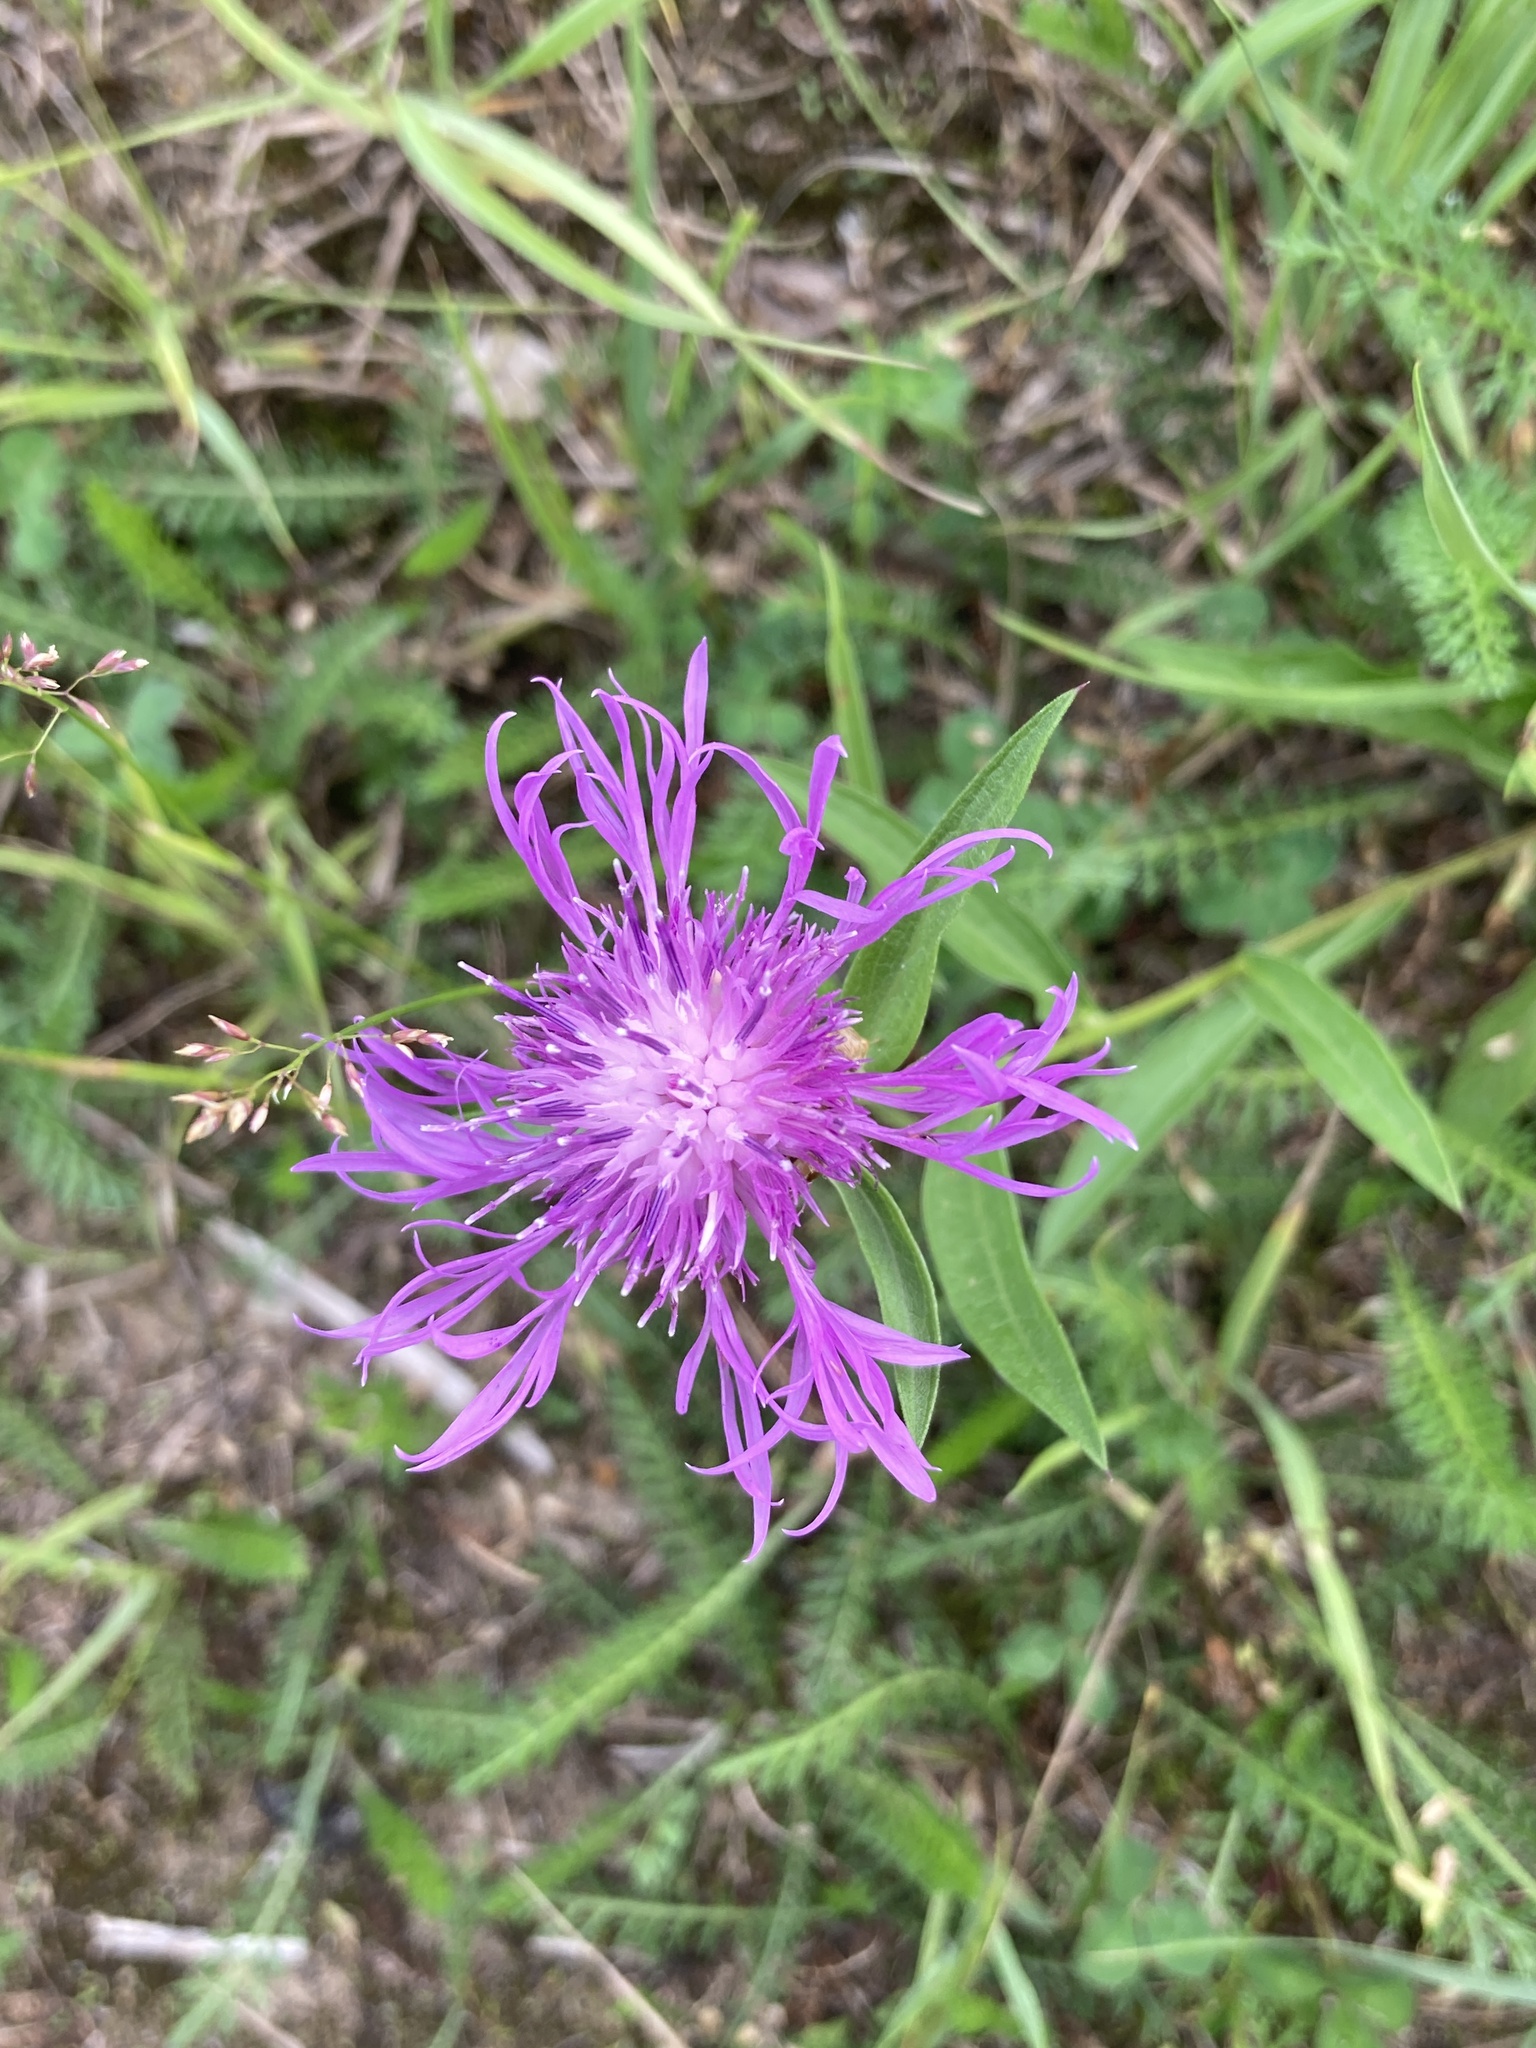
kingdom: Plantae
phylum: Tracheophyta
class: Magnoliopsida
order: Asterales
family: Asteraceae
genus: Centaurea
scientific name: Centaurea jacea
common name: Brown knapweed
